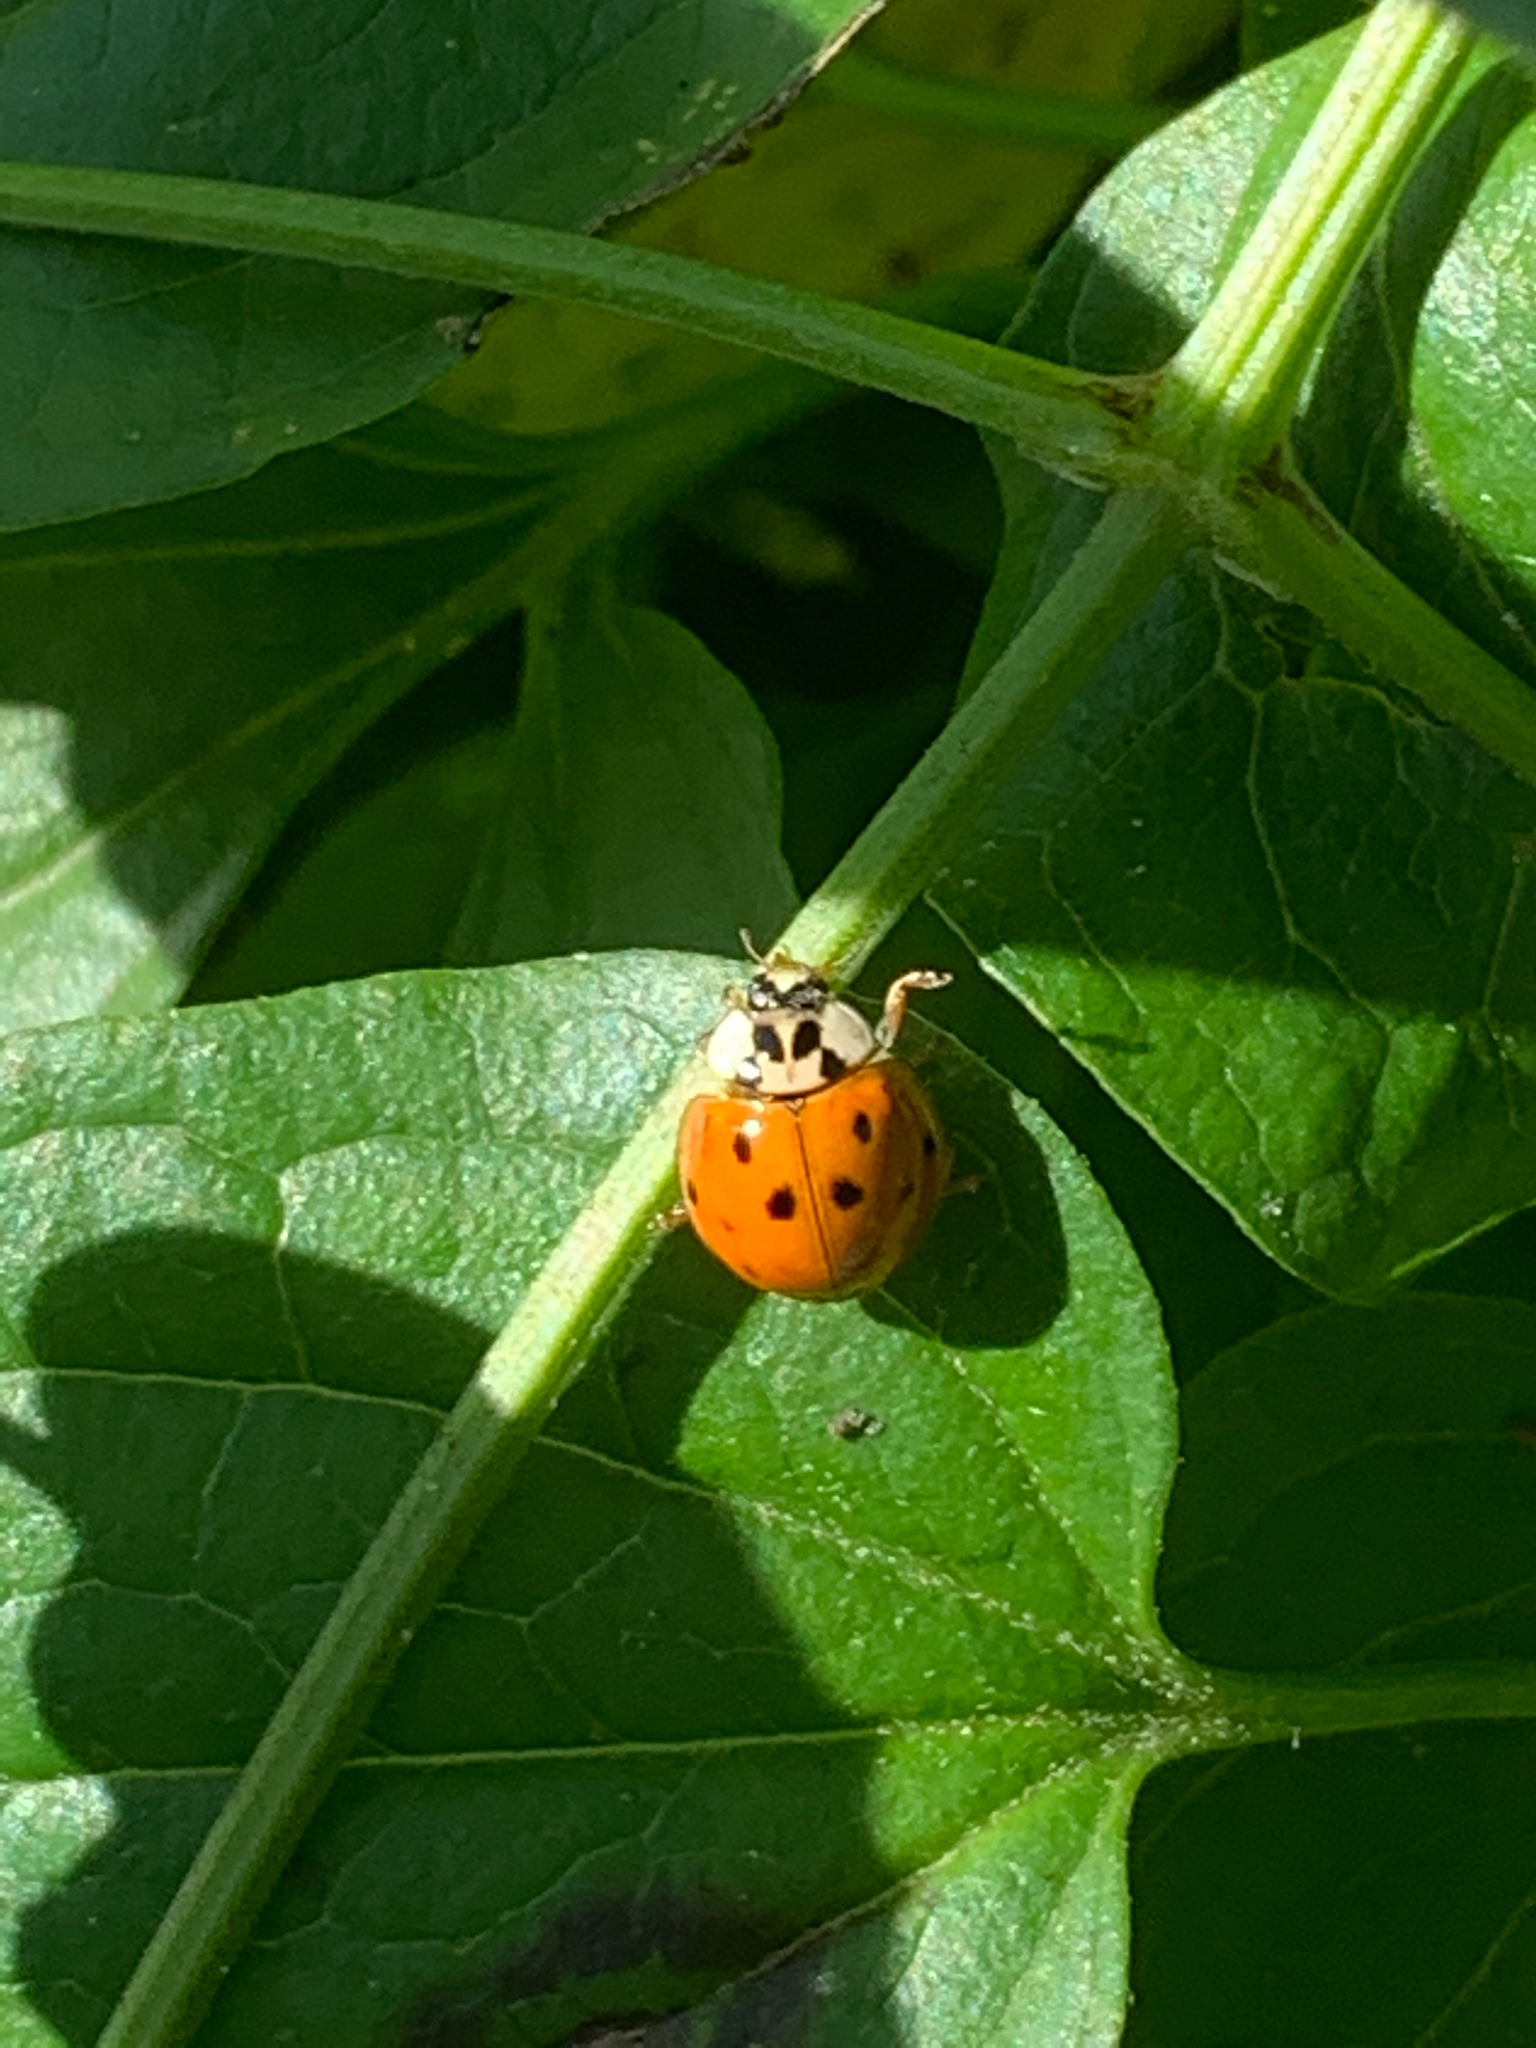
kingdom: Animalia
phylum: Arthropoda
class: Insecta
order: Coleoptera
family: Coccinellidae
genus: Harmonia
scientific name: Harmonia axyridis
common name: Harlequin ladybird
